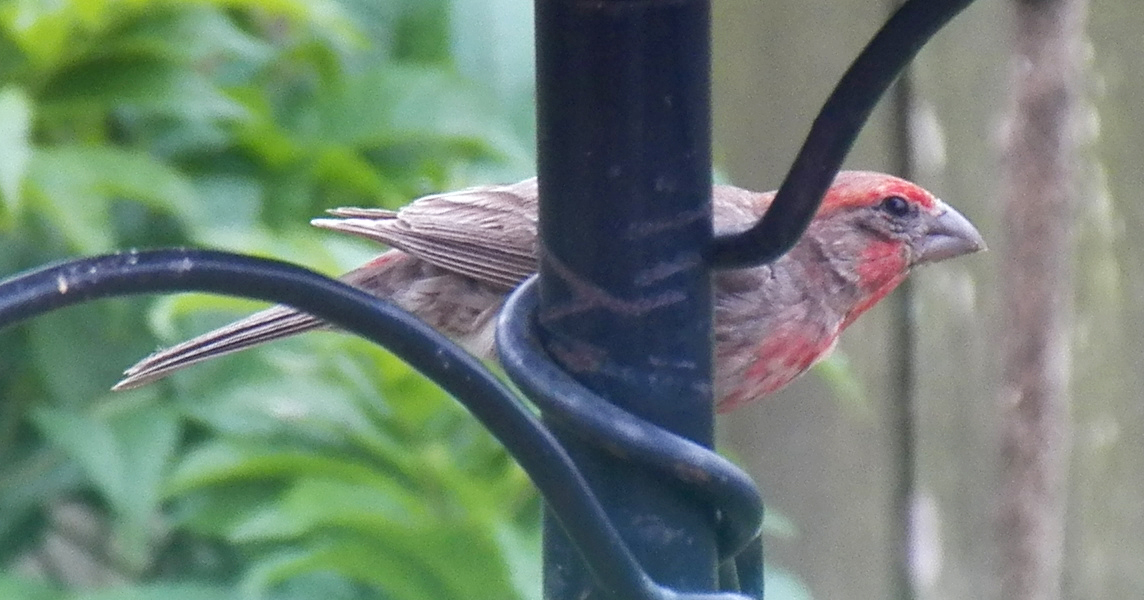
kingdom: Animalia
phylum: Chordata
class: Aves
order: Passeriformes
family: Fringillidae
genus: Haemorhous
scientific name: Haemorhous mexicanus
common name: House finch
